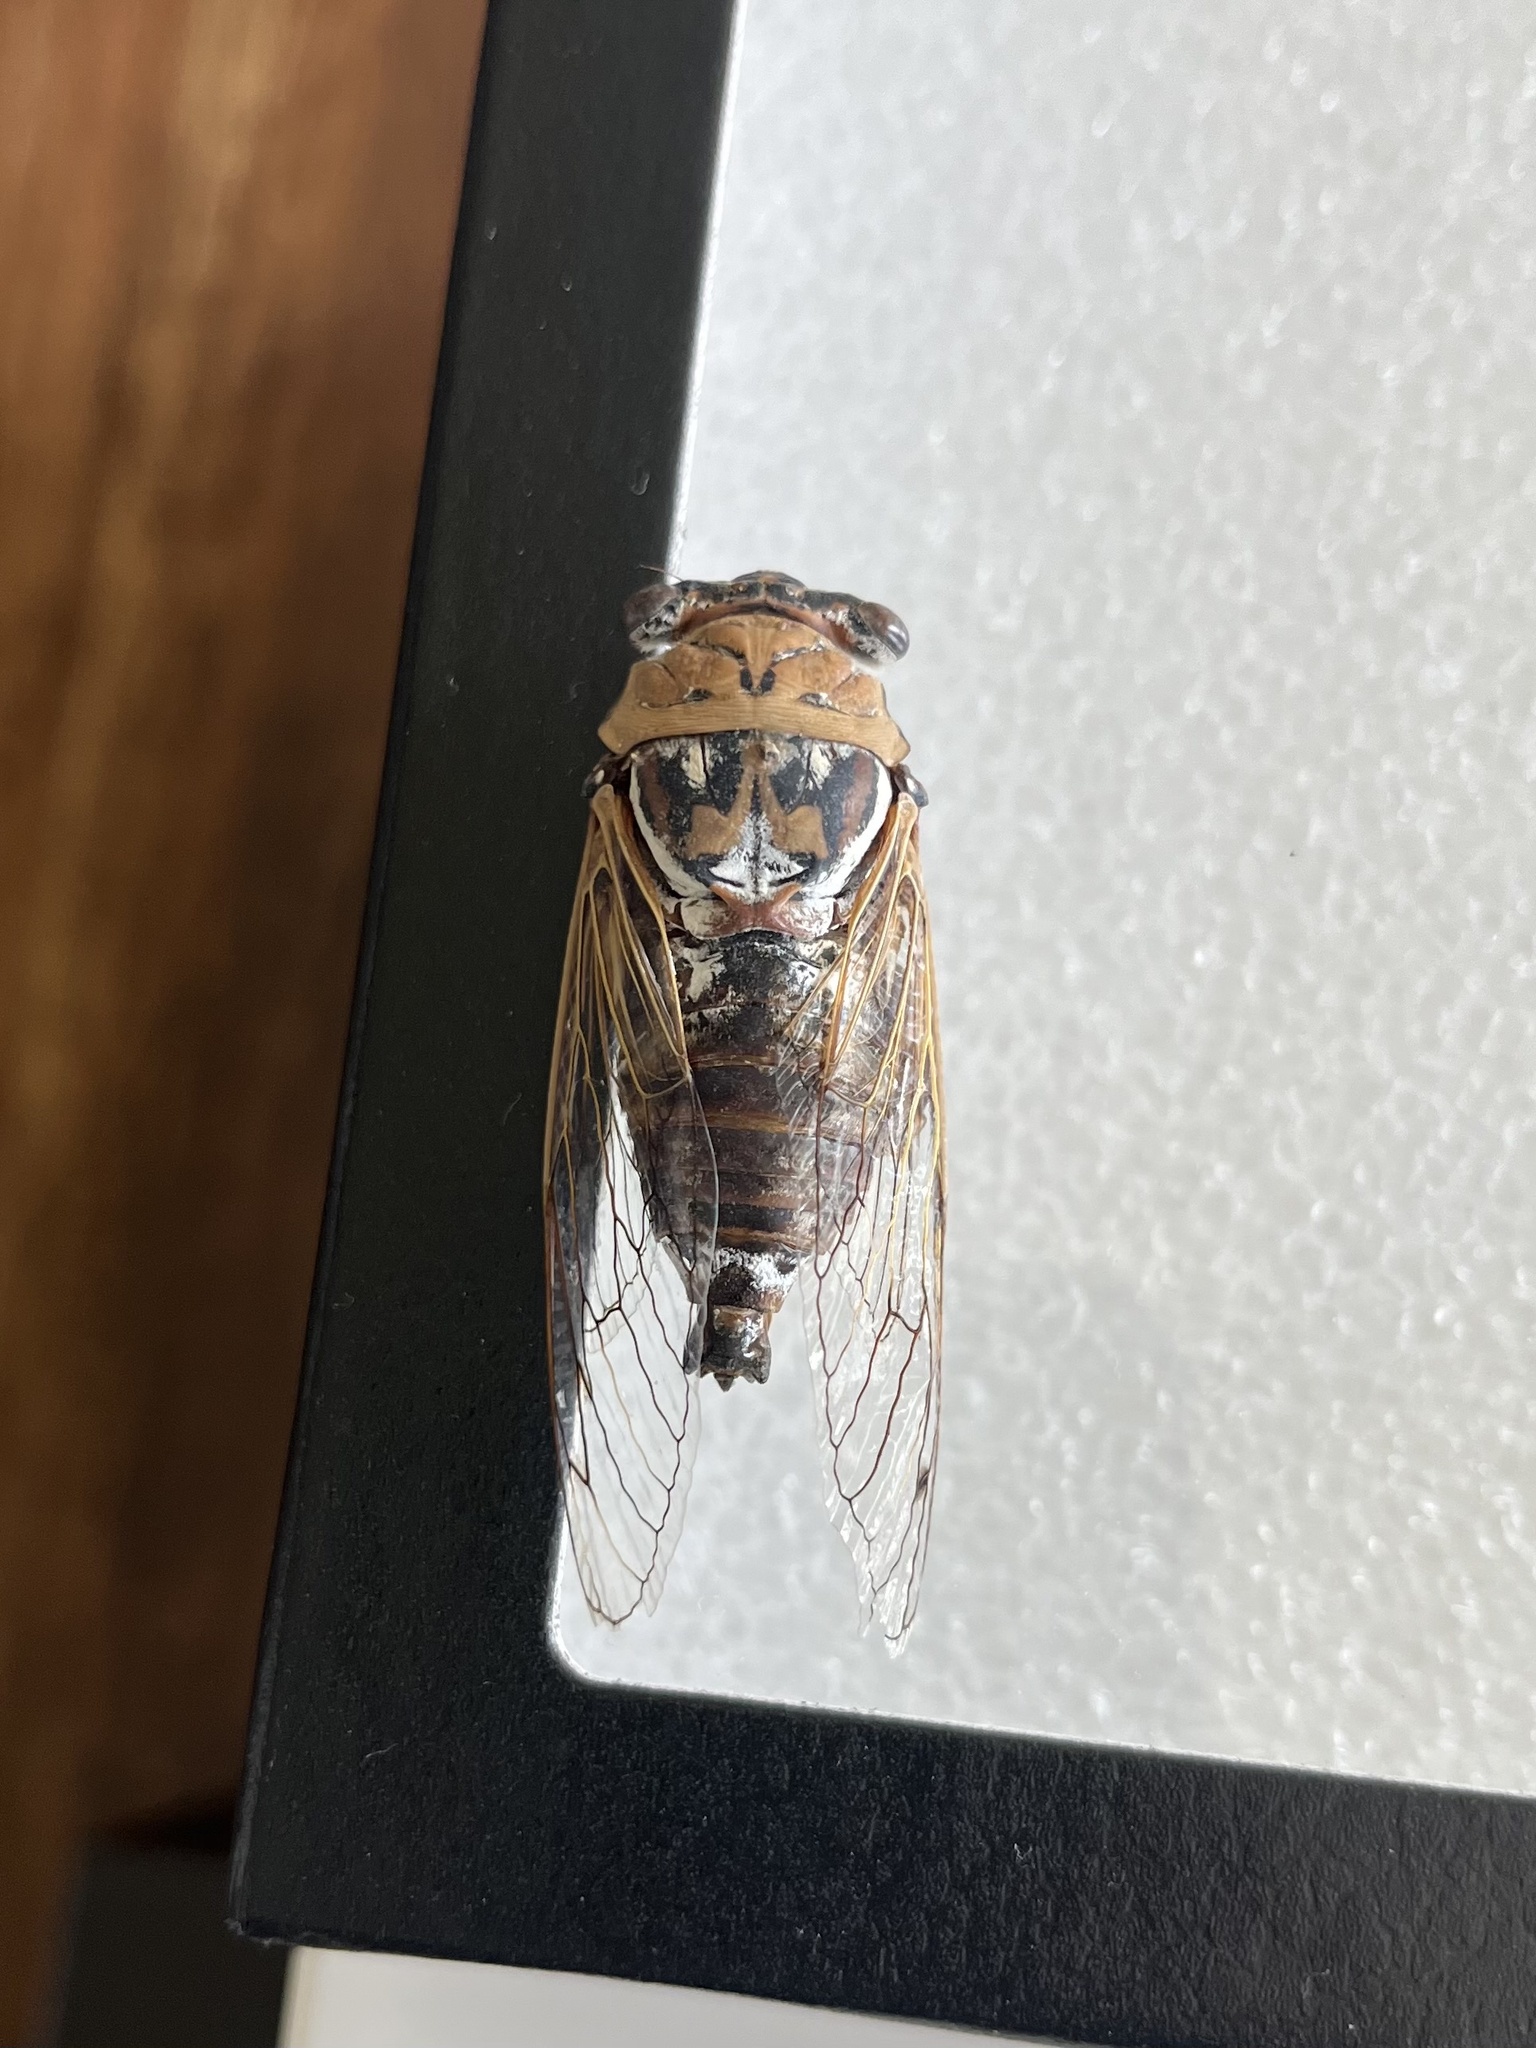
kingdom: Animalia
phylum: Arthropoda
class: Insecta
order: Hemiptera
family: Cicadidae
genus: Megatibicen
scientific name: Megatibicen pronotalis
